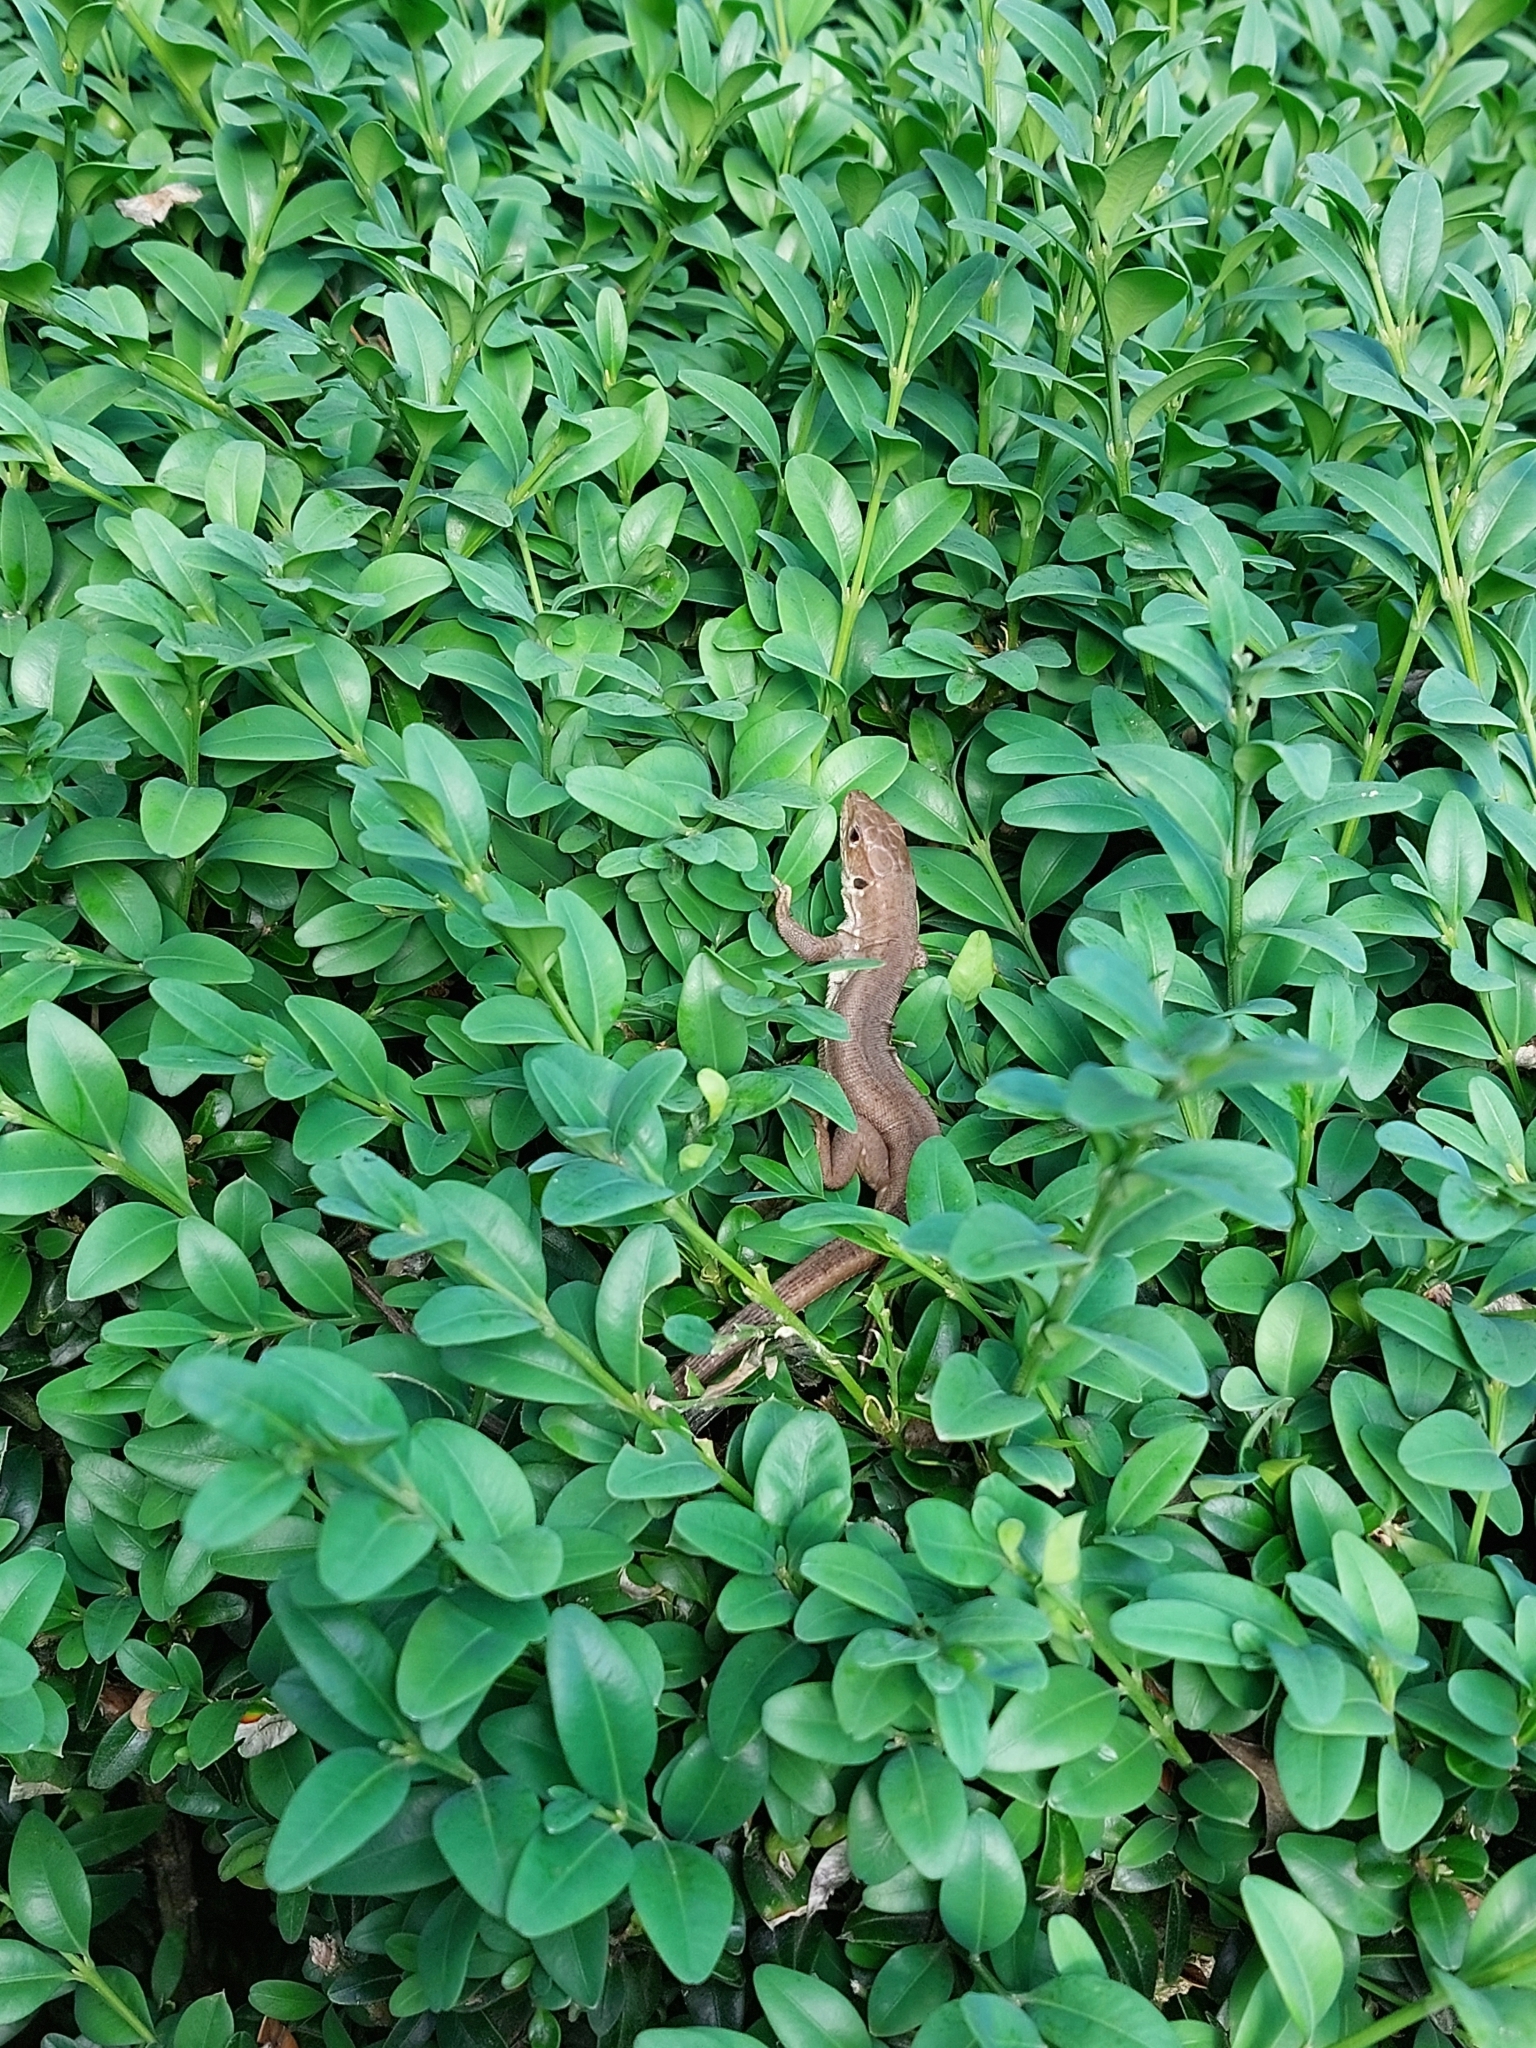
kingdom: Animalia
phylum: Chordata
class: Squamata
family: Lacertidae
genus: Lacerta
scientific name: Lacerta viridis
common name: European green lizard
